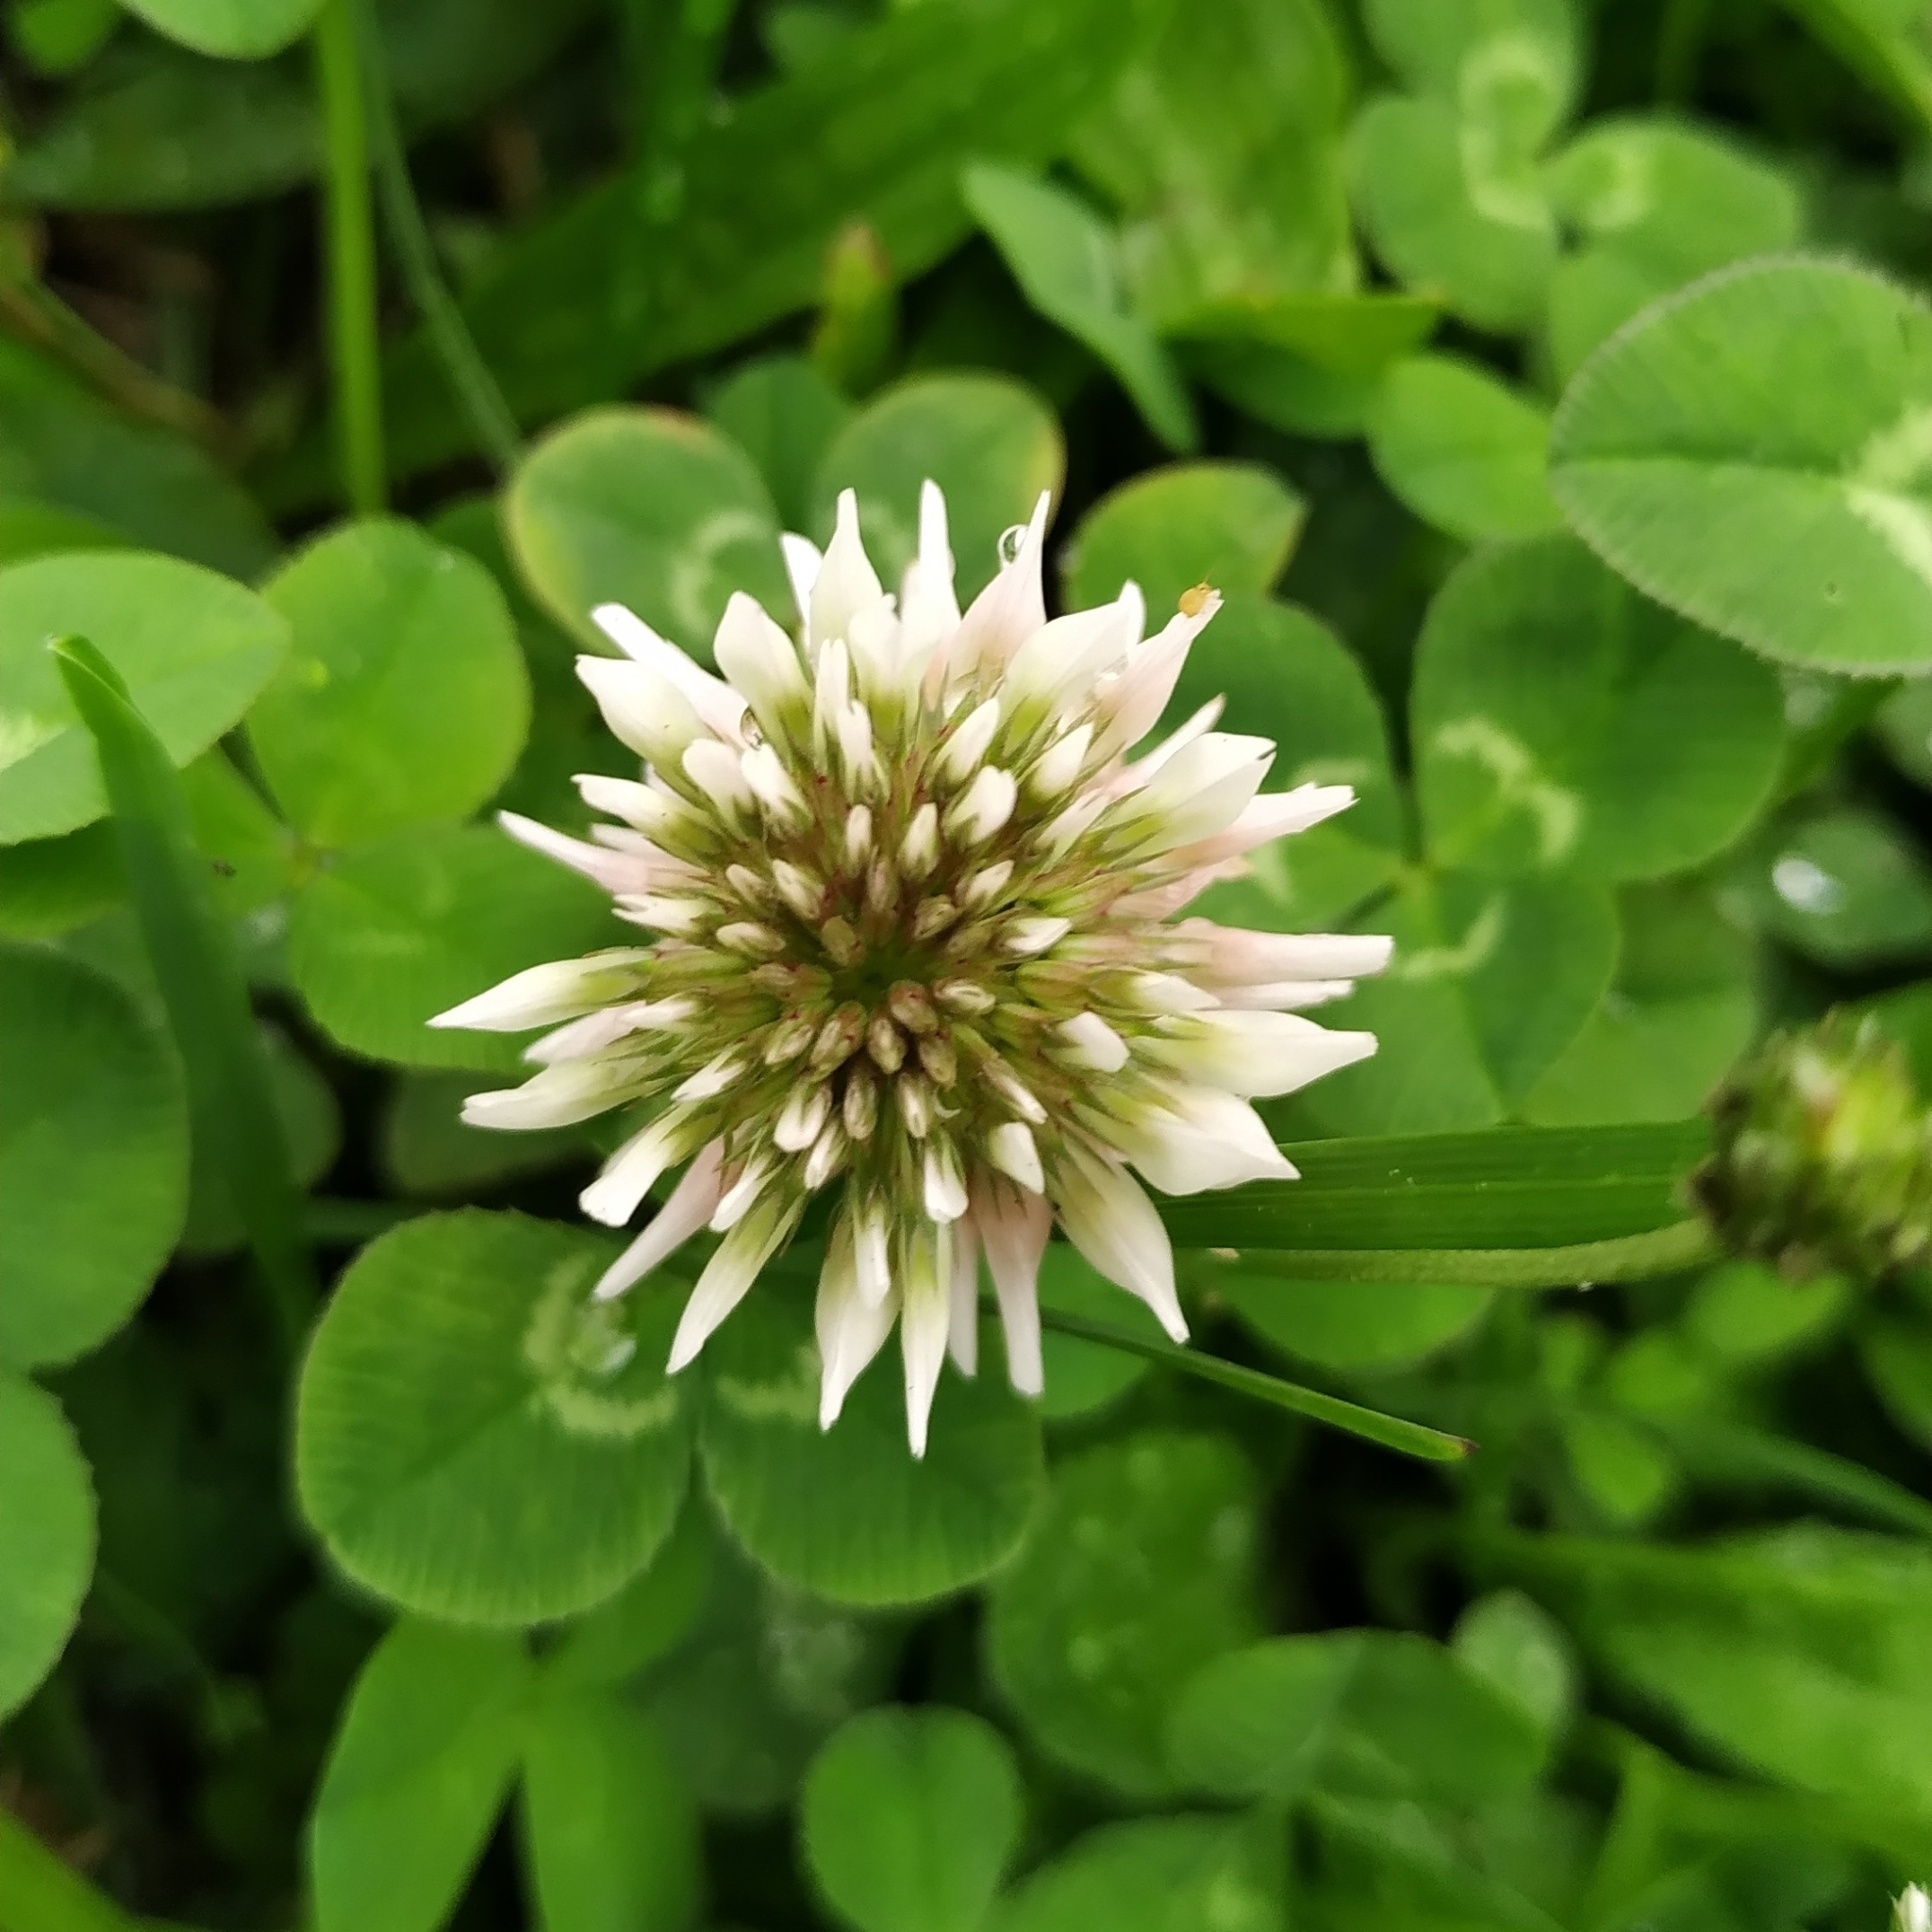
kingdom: Plantae
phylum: Tracheophyta
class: Magnoliopsida
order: Fabales
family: Fabaceae
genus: Trifolium
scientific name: Trifolium repens
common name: White clover
